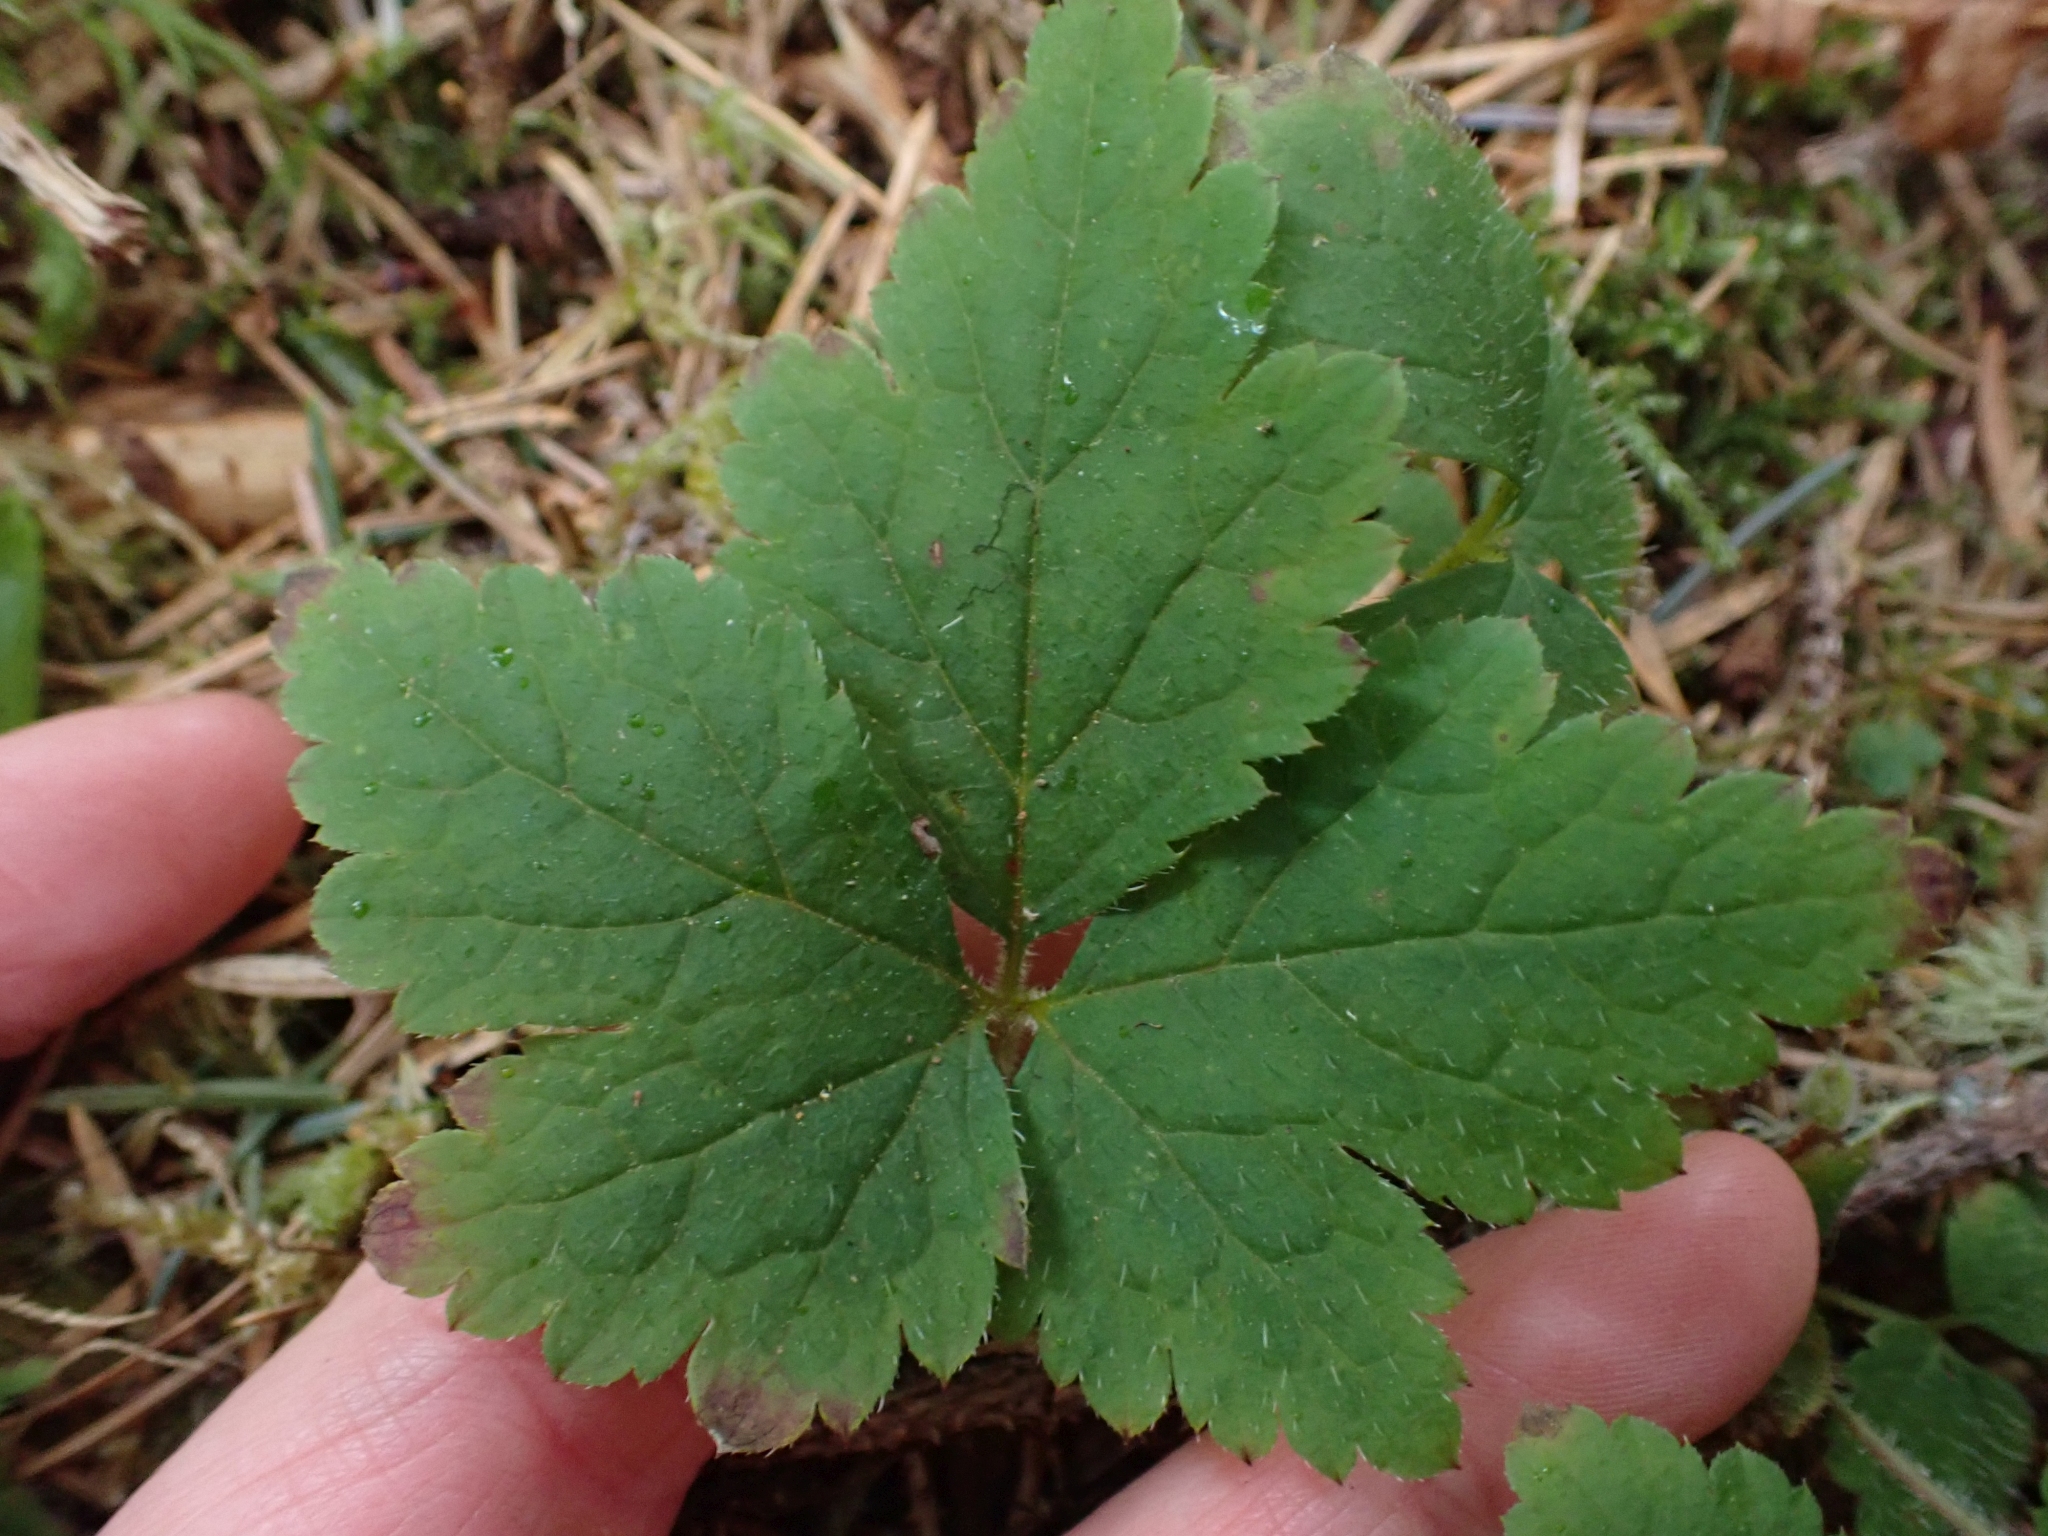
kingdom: Plantae
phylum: Tracheophyta
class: Magnoliopsida
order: Saxifragales
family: Saxifragaceae
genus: Tiarella
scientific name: Tiarella trifoliata
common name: Sugar-scoop
